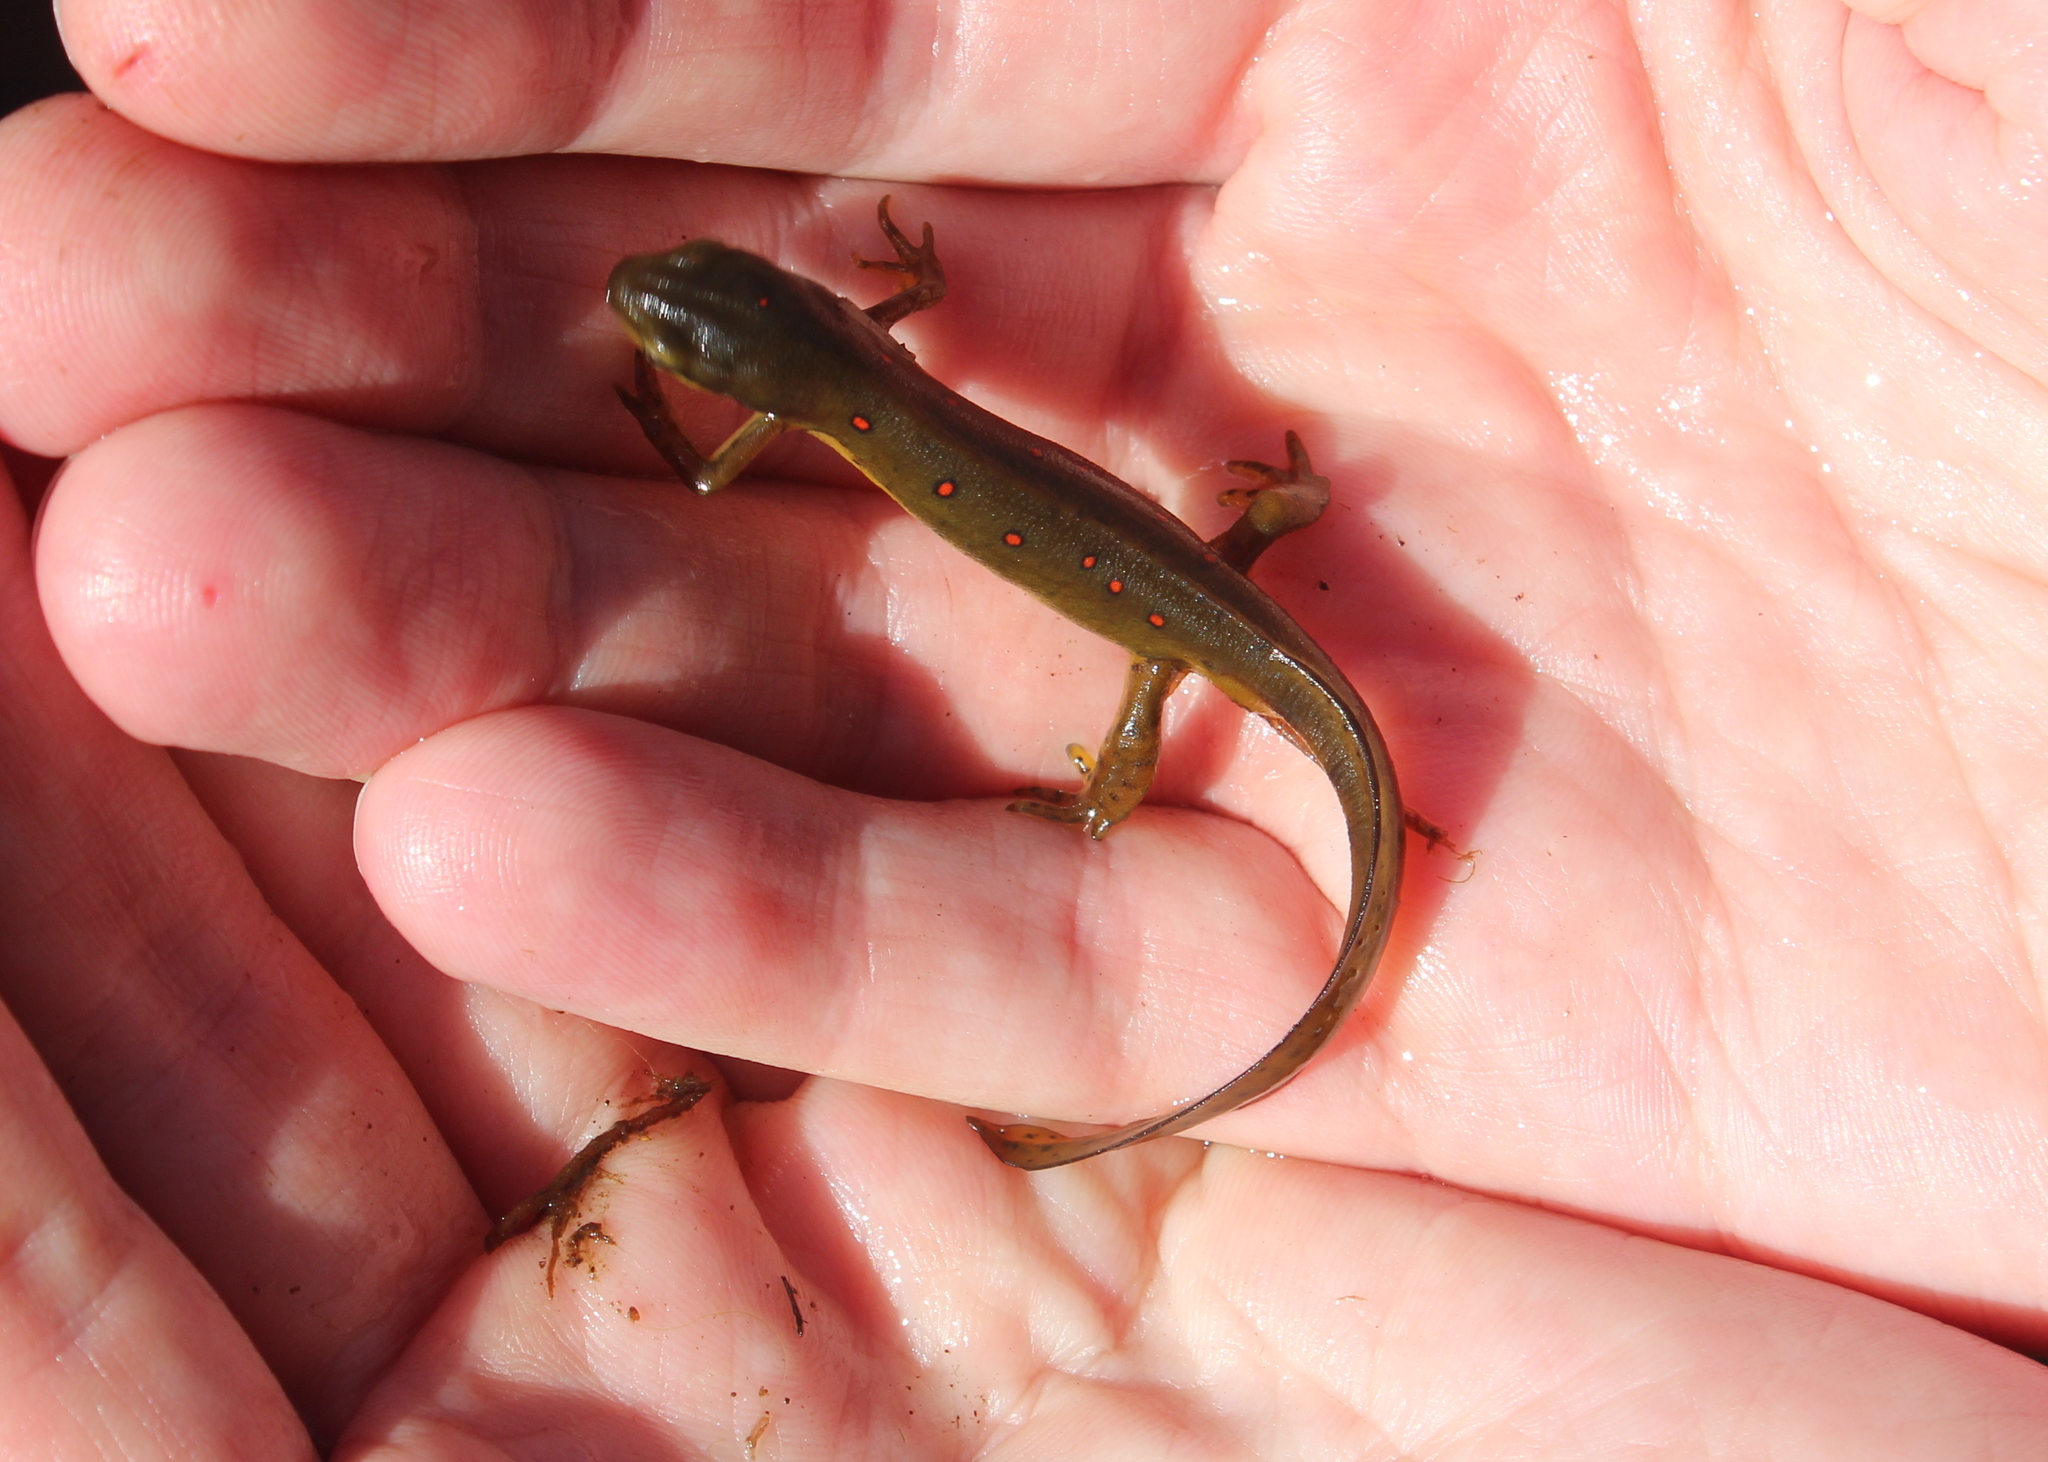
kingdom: Animalia
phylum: Chordata
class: Amphibia
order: Caudata
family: Salamandridae
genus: Notophthalmus
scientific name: Notophthalmus viridescens
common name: Eastern newt
